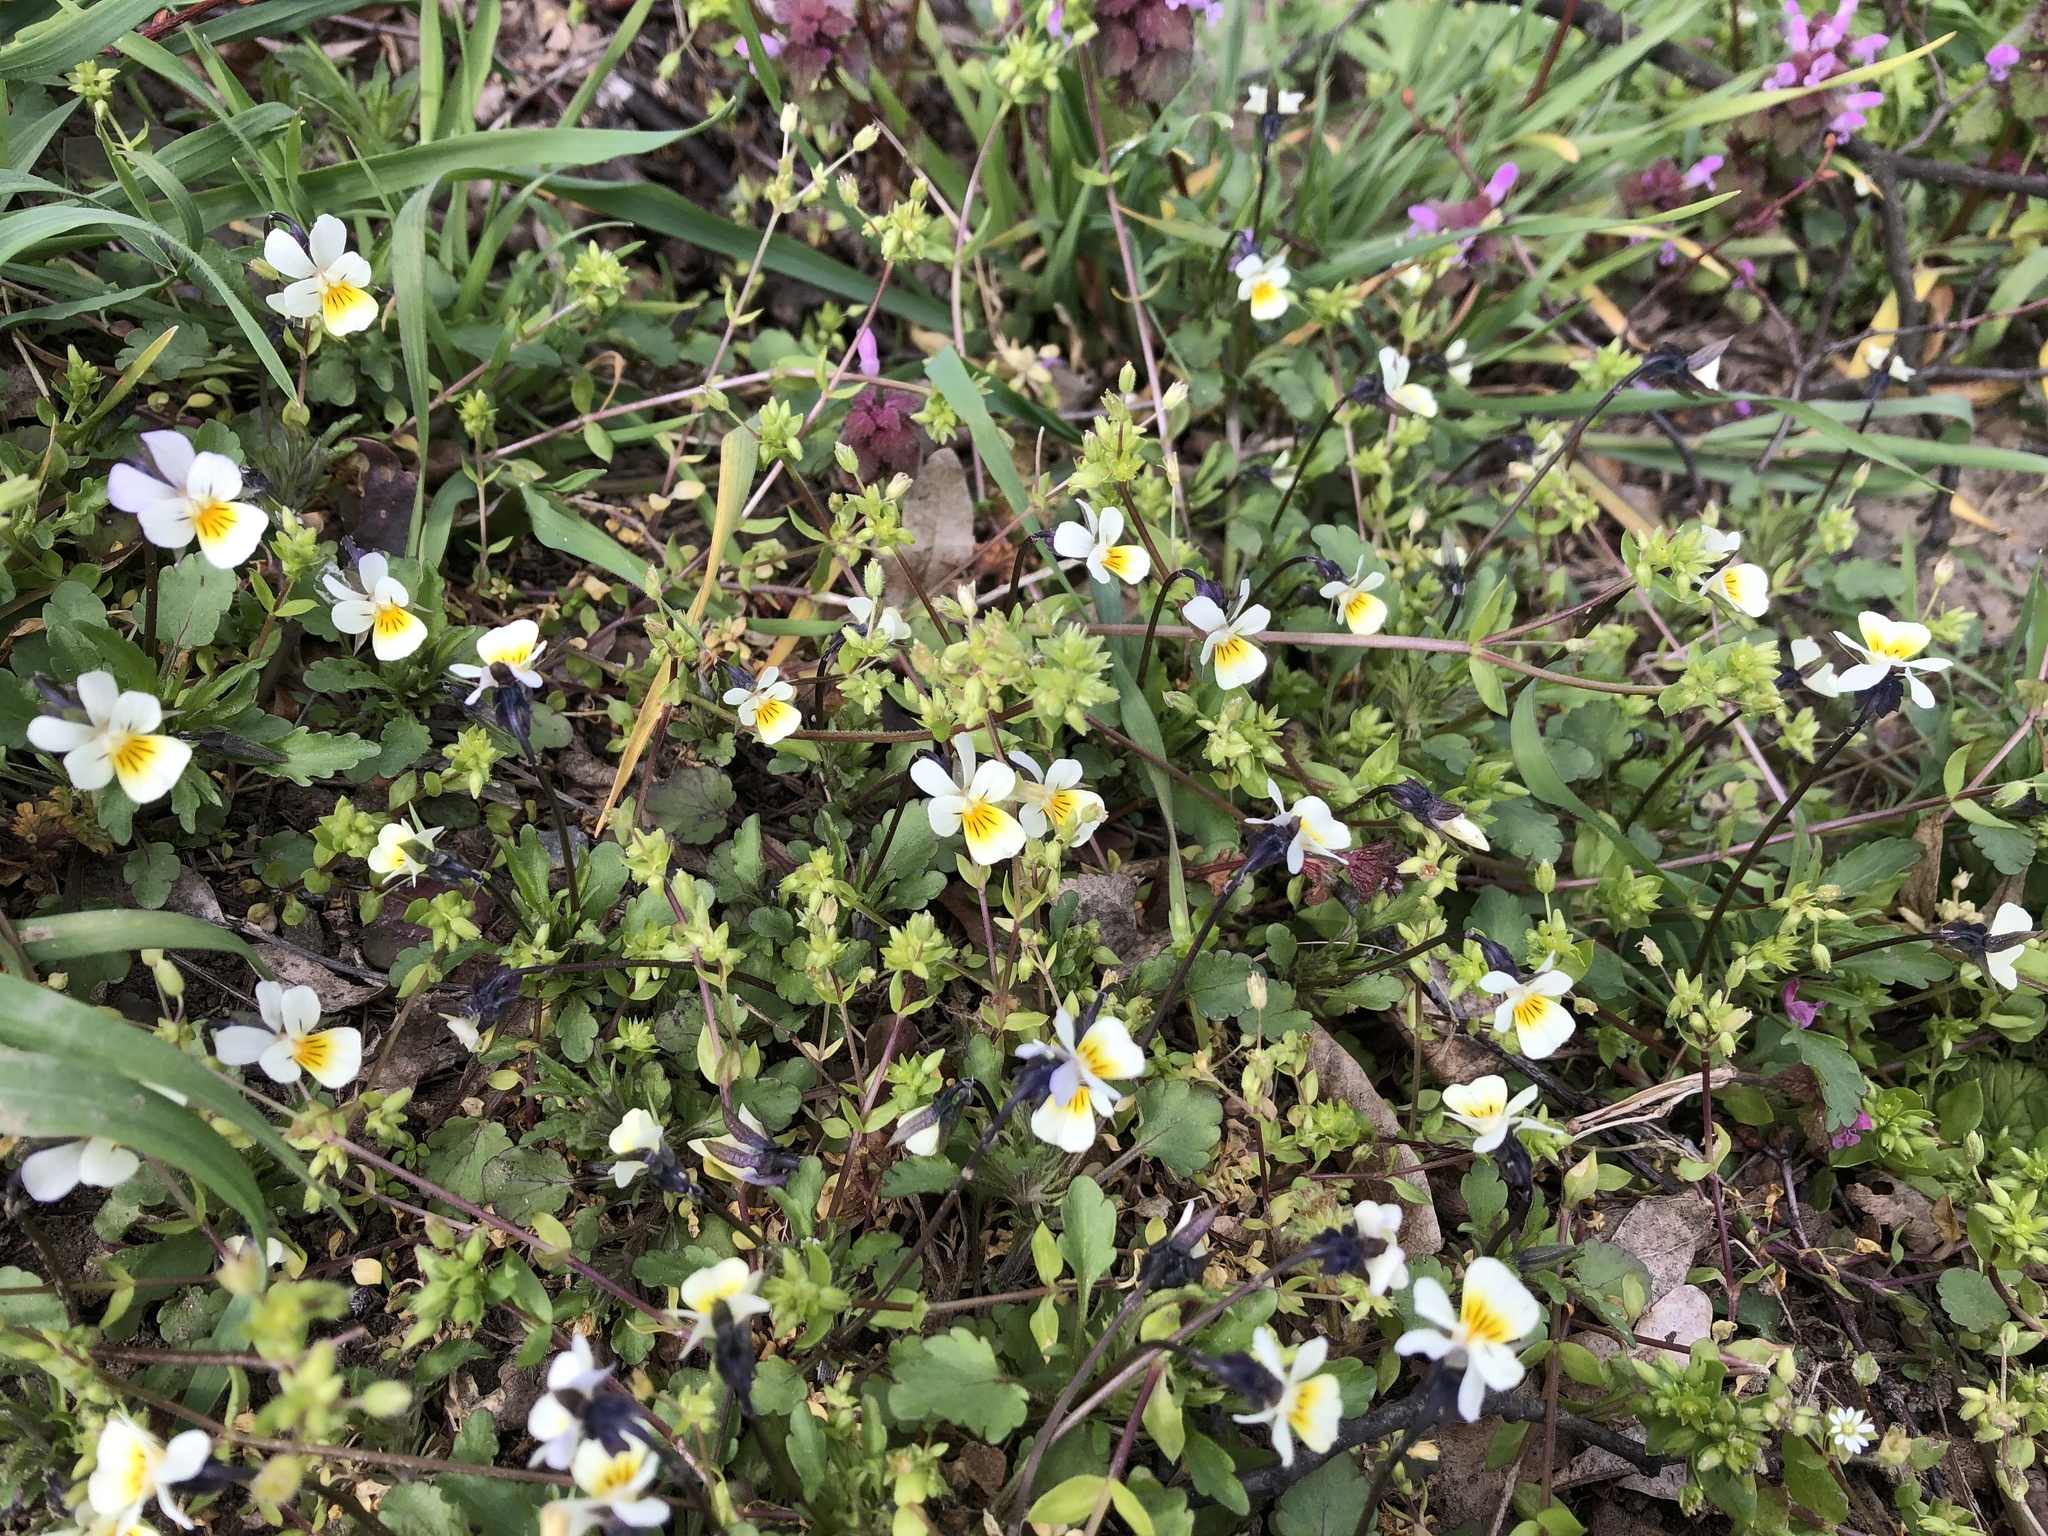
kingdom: Plantae
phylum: Tracheophyta
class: Magnoliopsida
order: Malpighiales
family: Violaceae
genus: Viola
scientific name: Viola arvensis
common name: Field pansy
